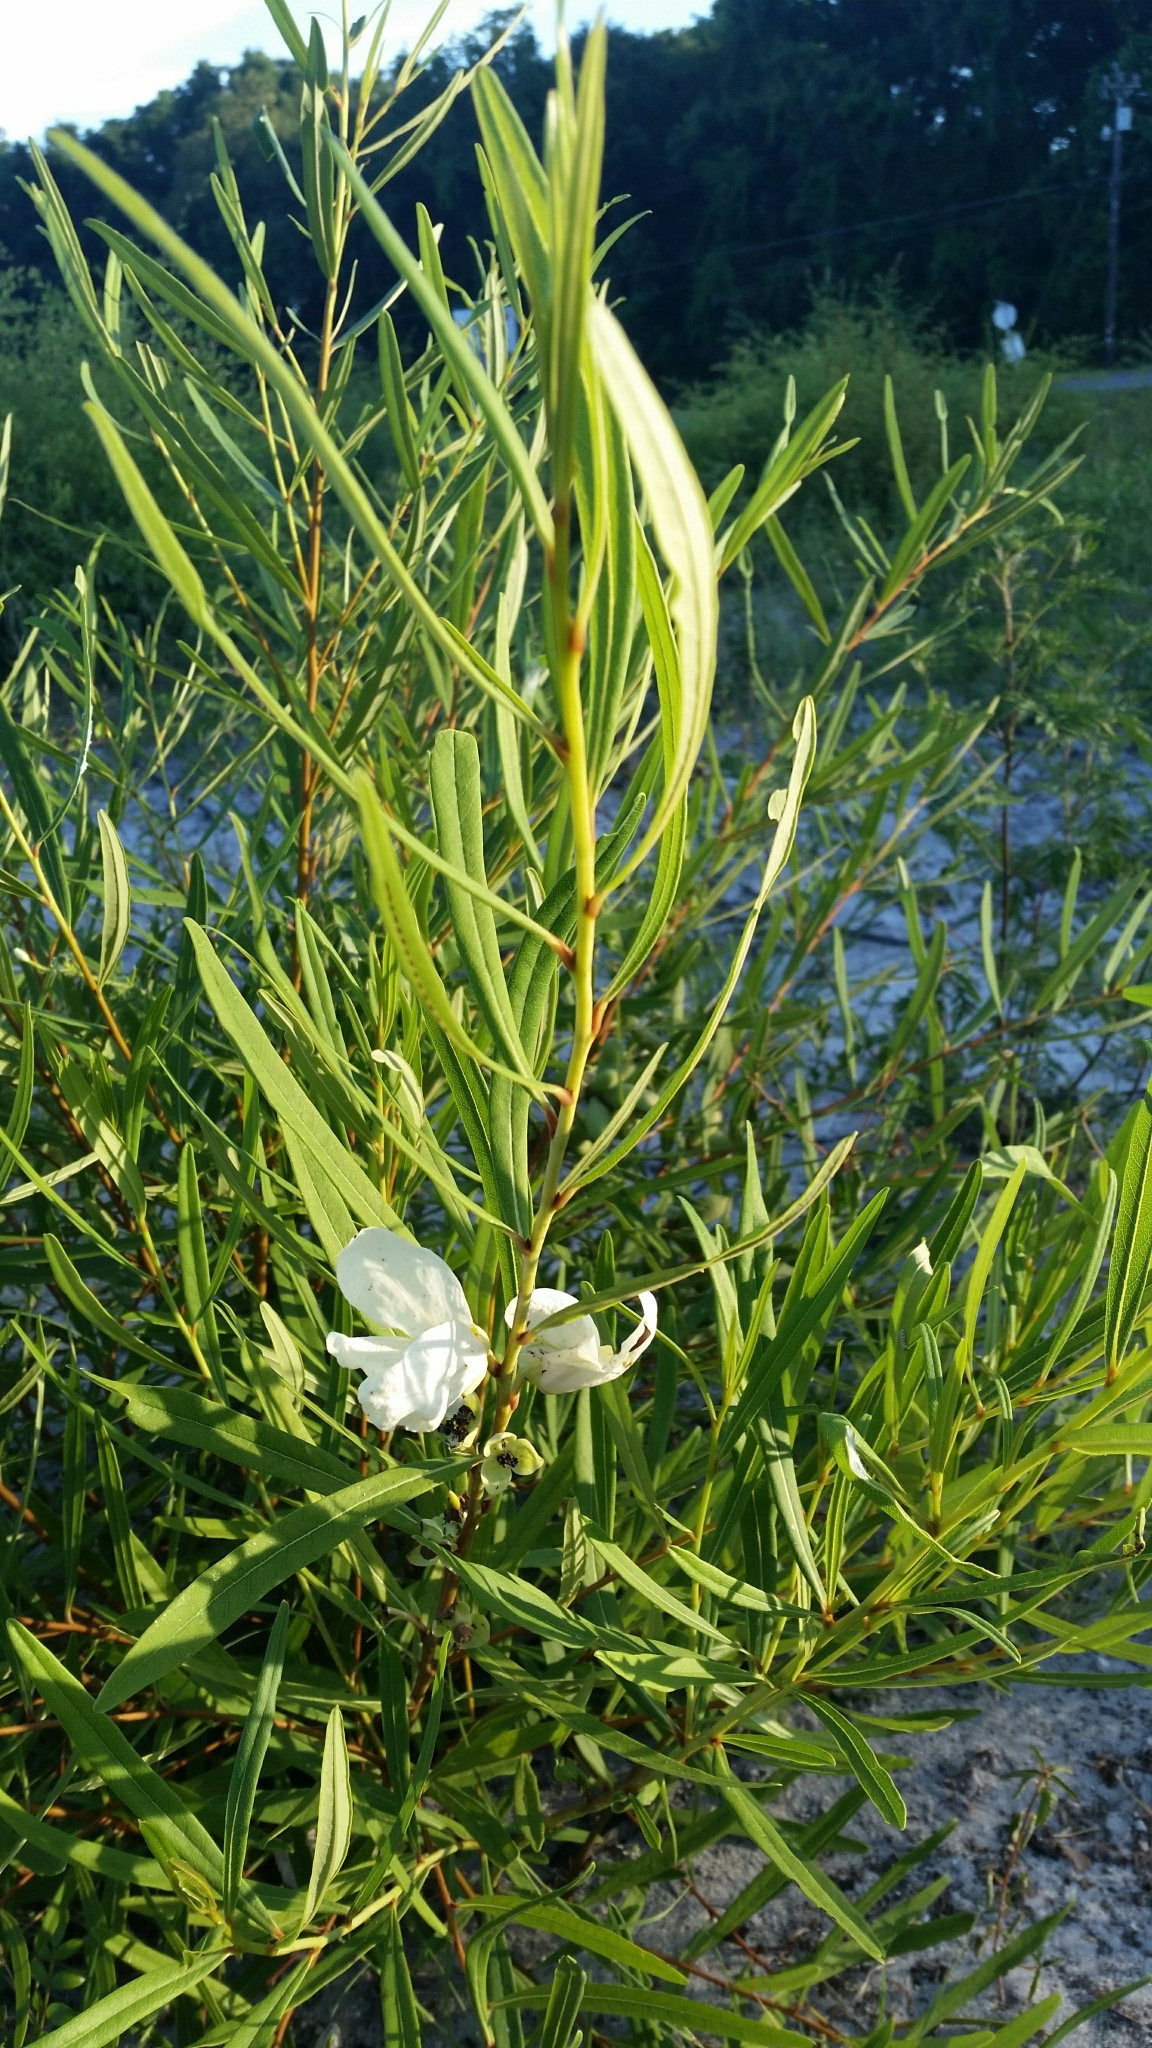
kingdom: Plantae
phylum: Tracheophyta
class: Magnoliopsida
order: Magnoliales
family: Annonaceae
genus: Asimina
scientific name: Asimina longifolia
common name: Polecatbush
